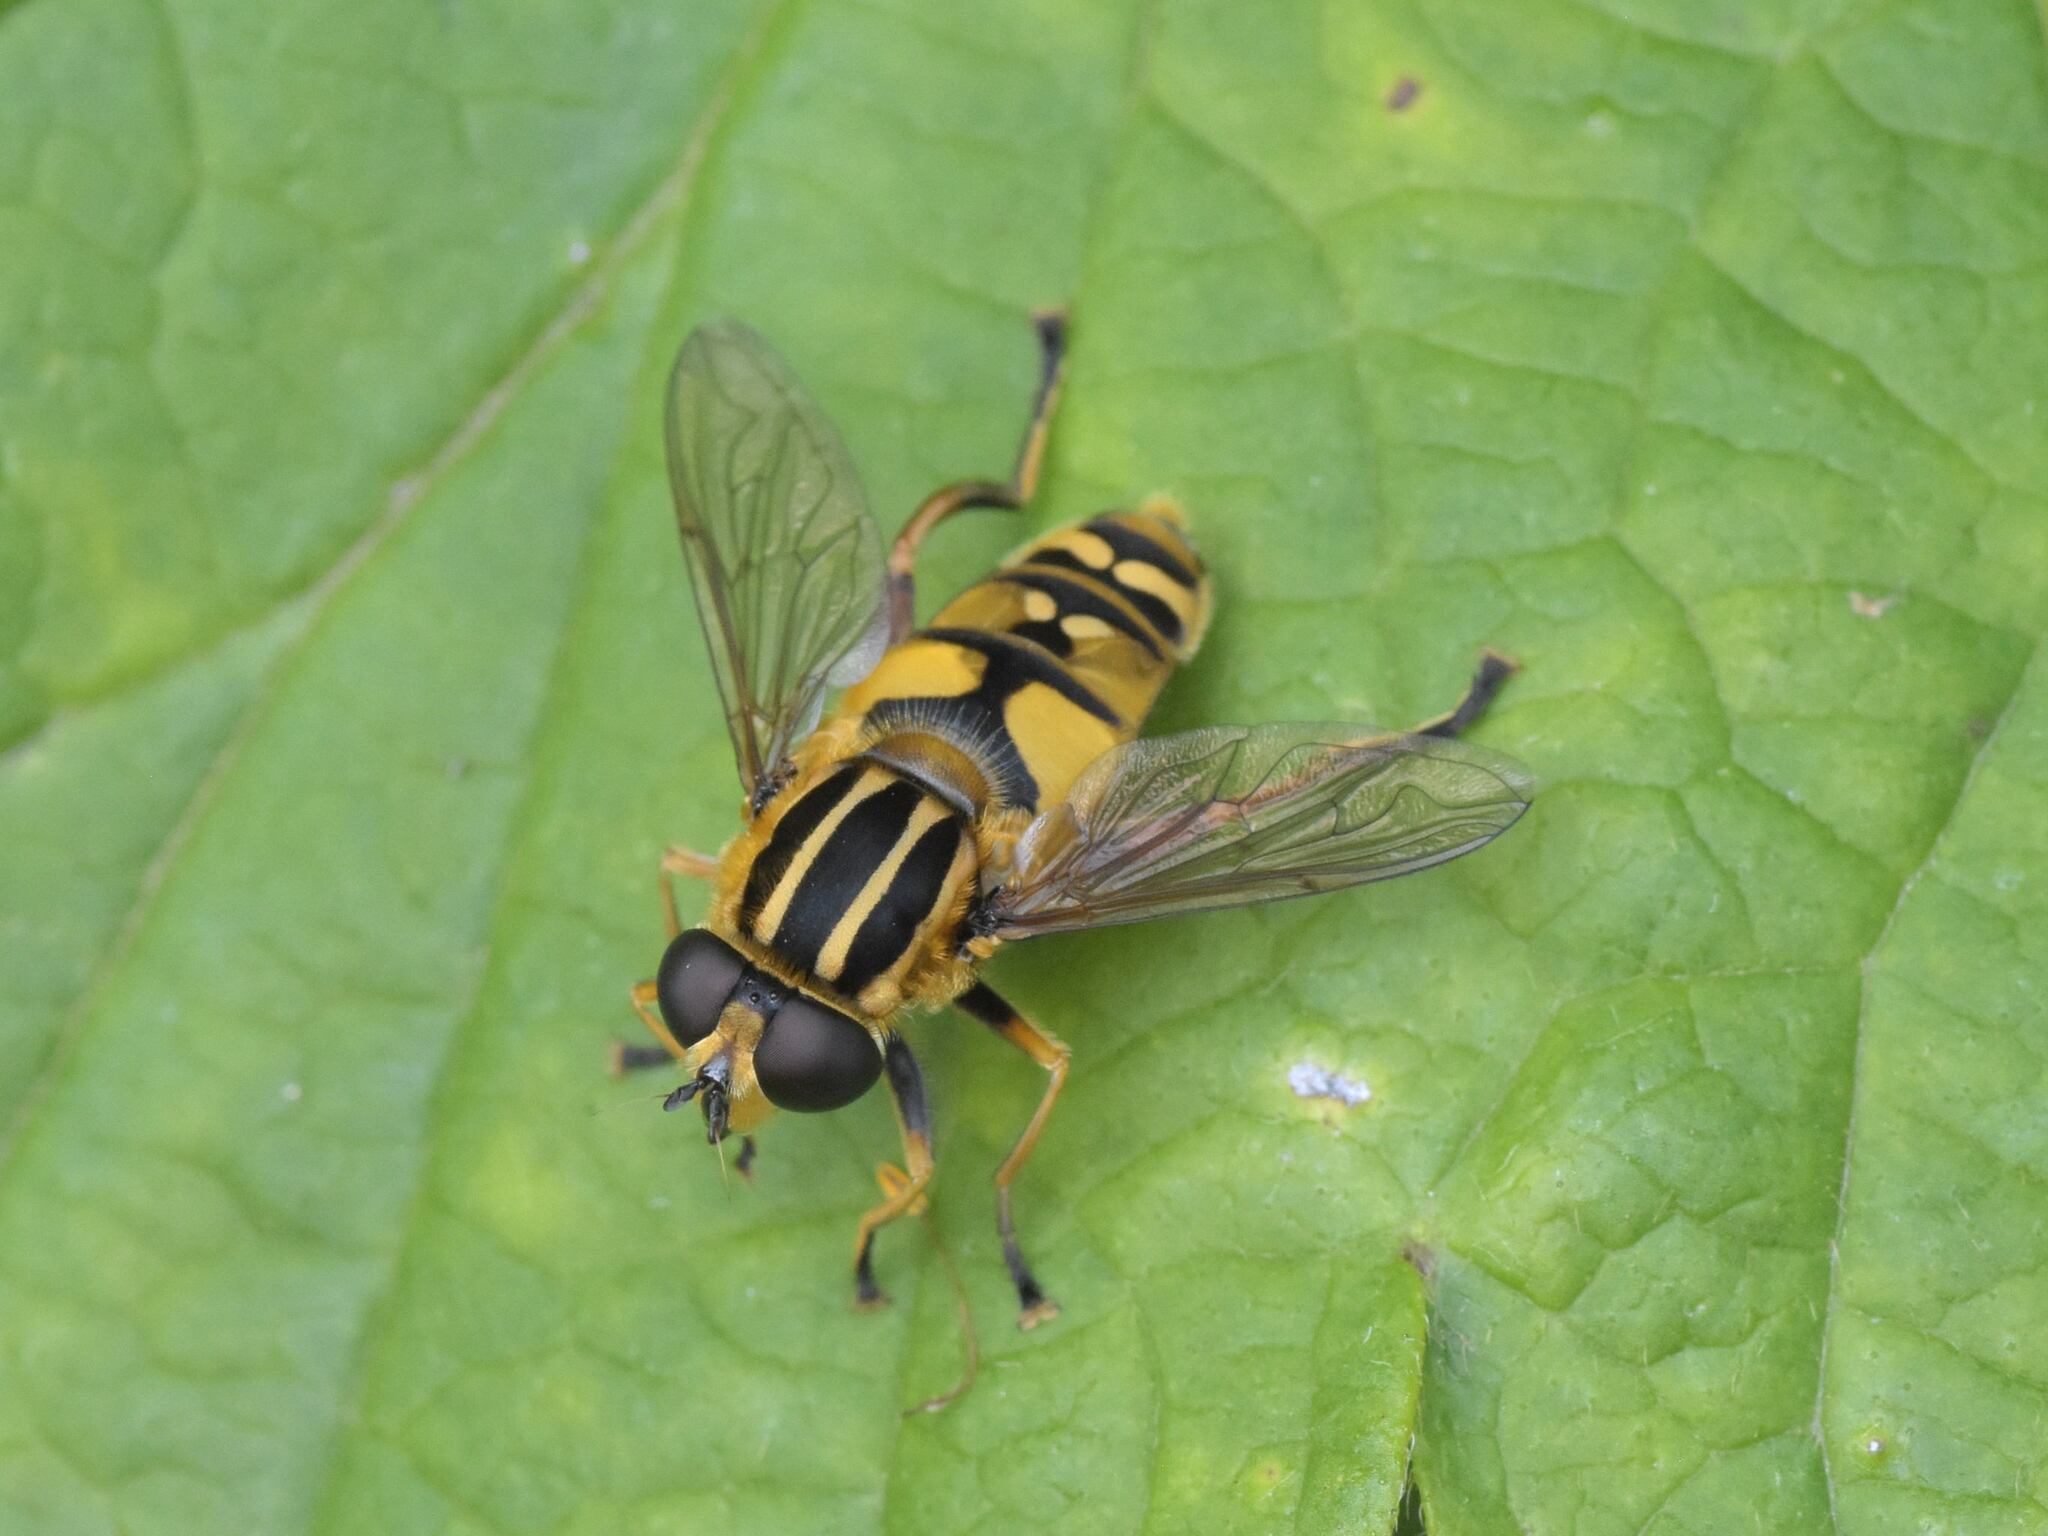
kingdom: Animalia
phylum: Arthropoda
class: Insecta
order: Diptera
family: Syrphidae
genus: Helophilus
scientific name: Helophilus pendulus
